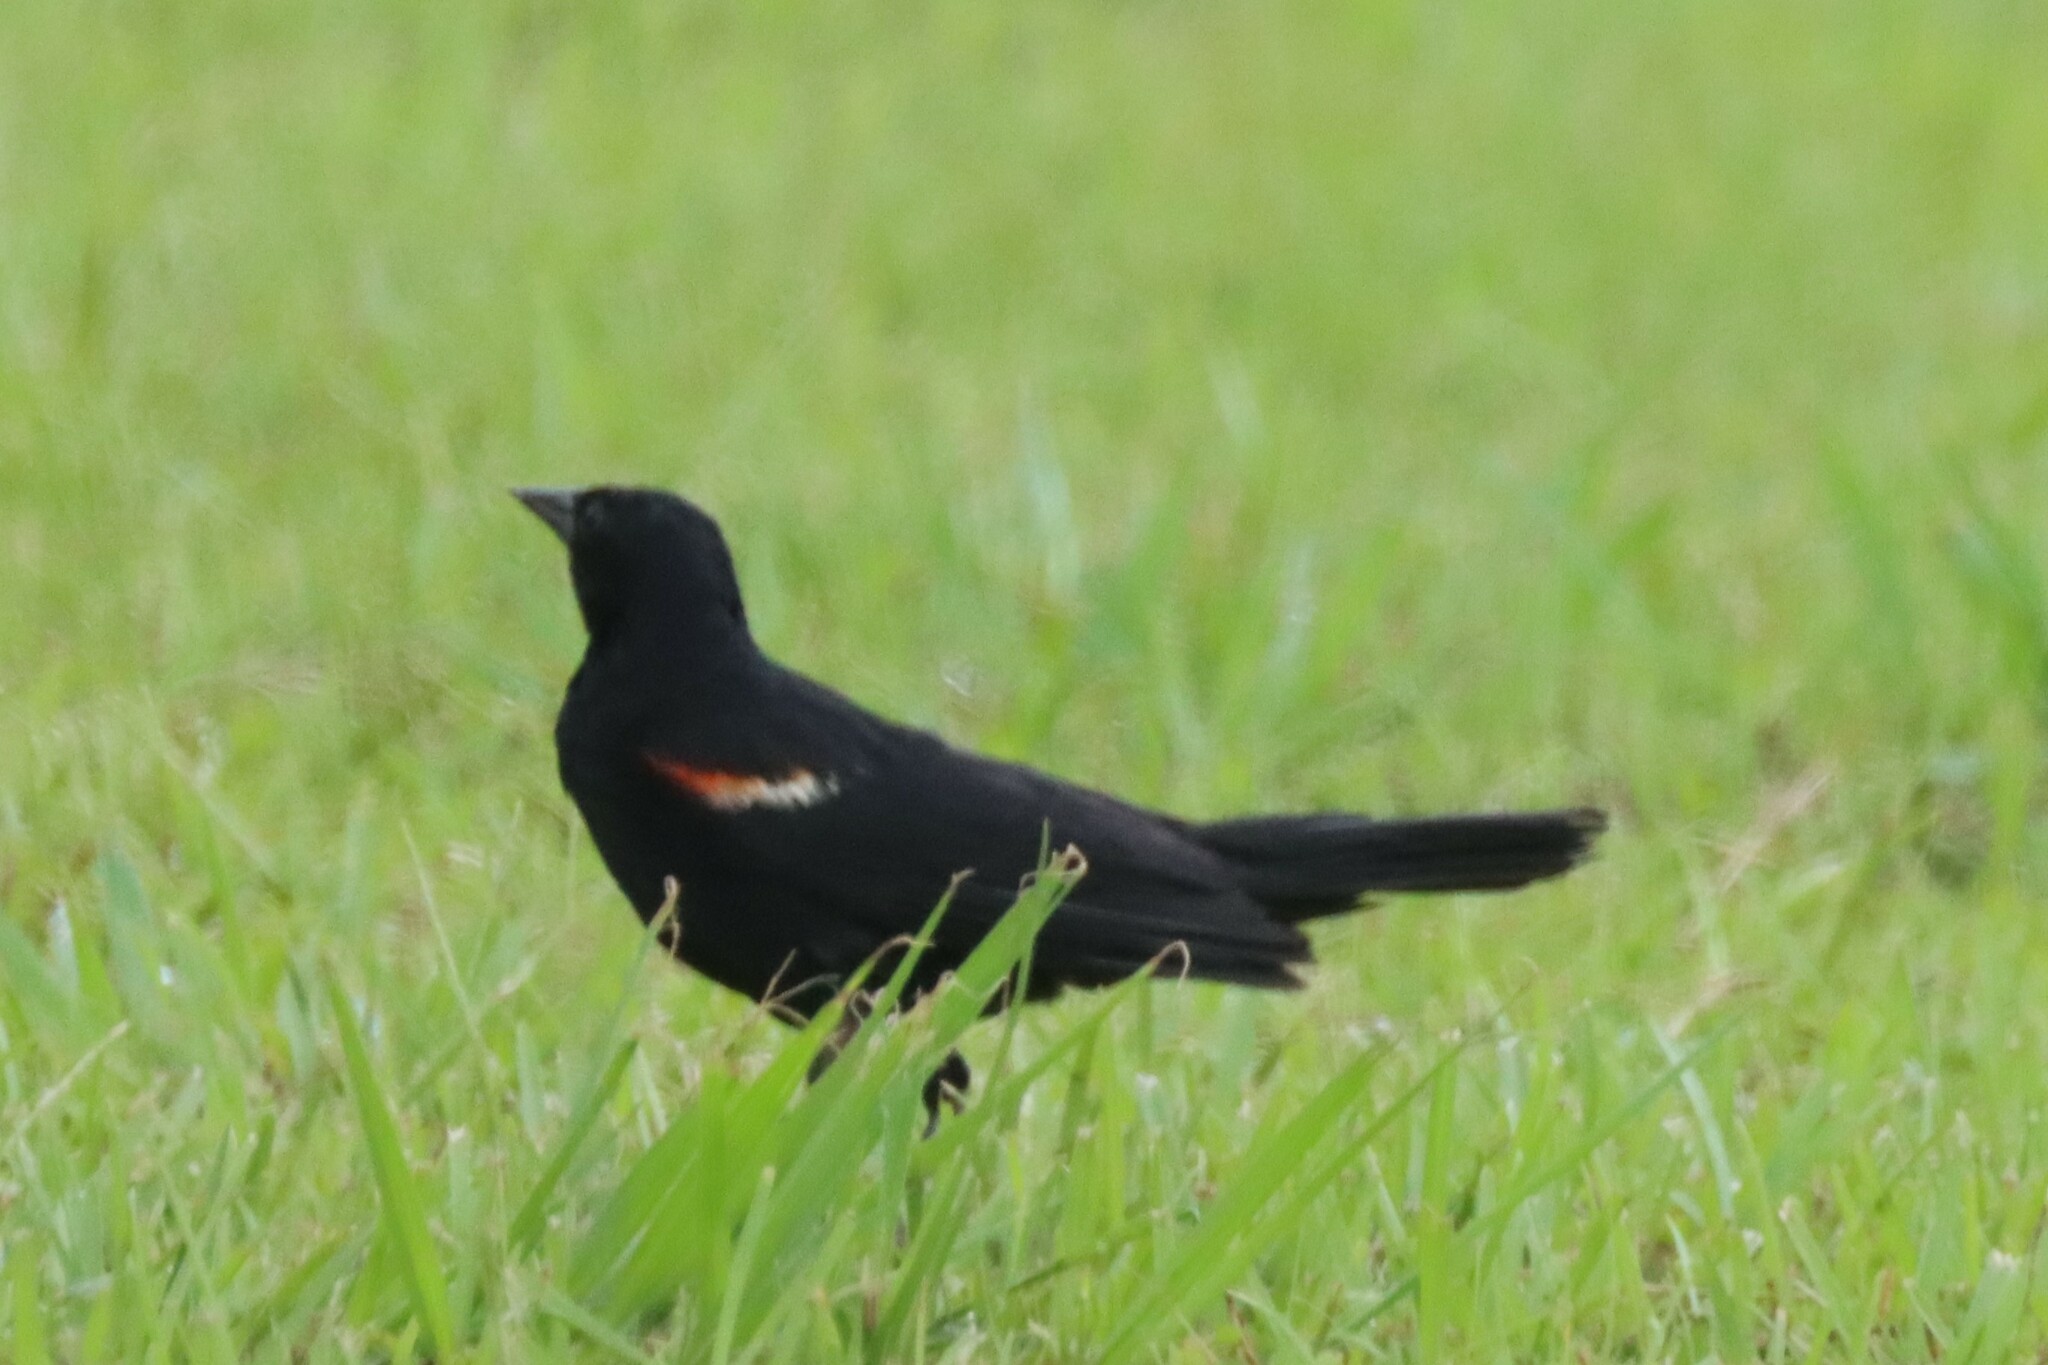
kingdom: Animalia
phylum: Chordata
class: Aves
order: Passeriformes
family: Icteridae
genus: Agelaius
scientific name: Agelaius phoeniceus
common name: Red-winged blackbird
